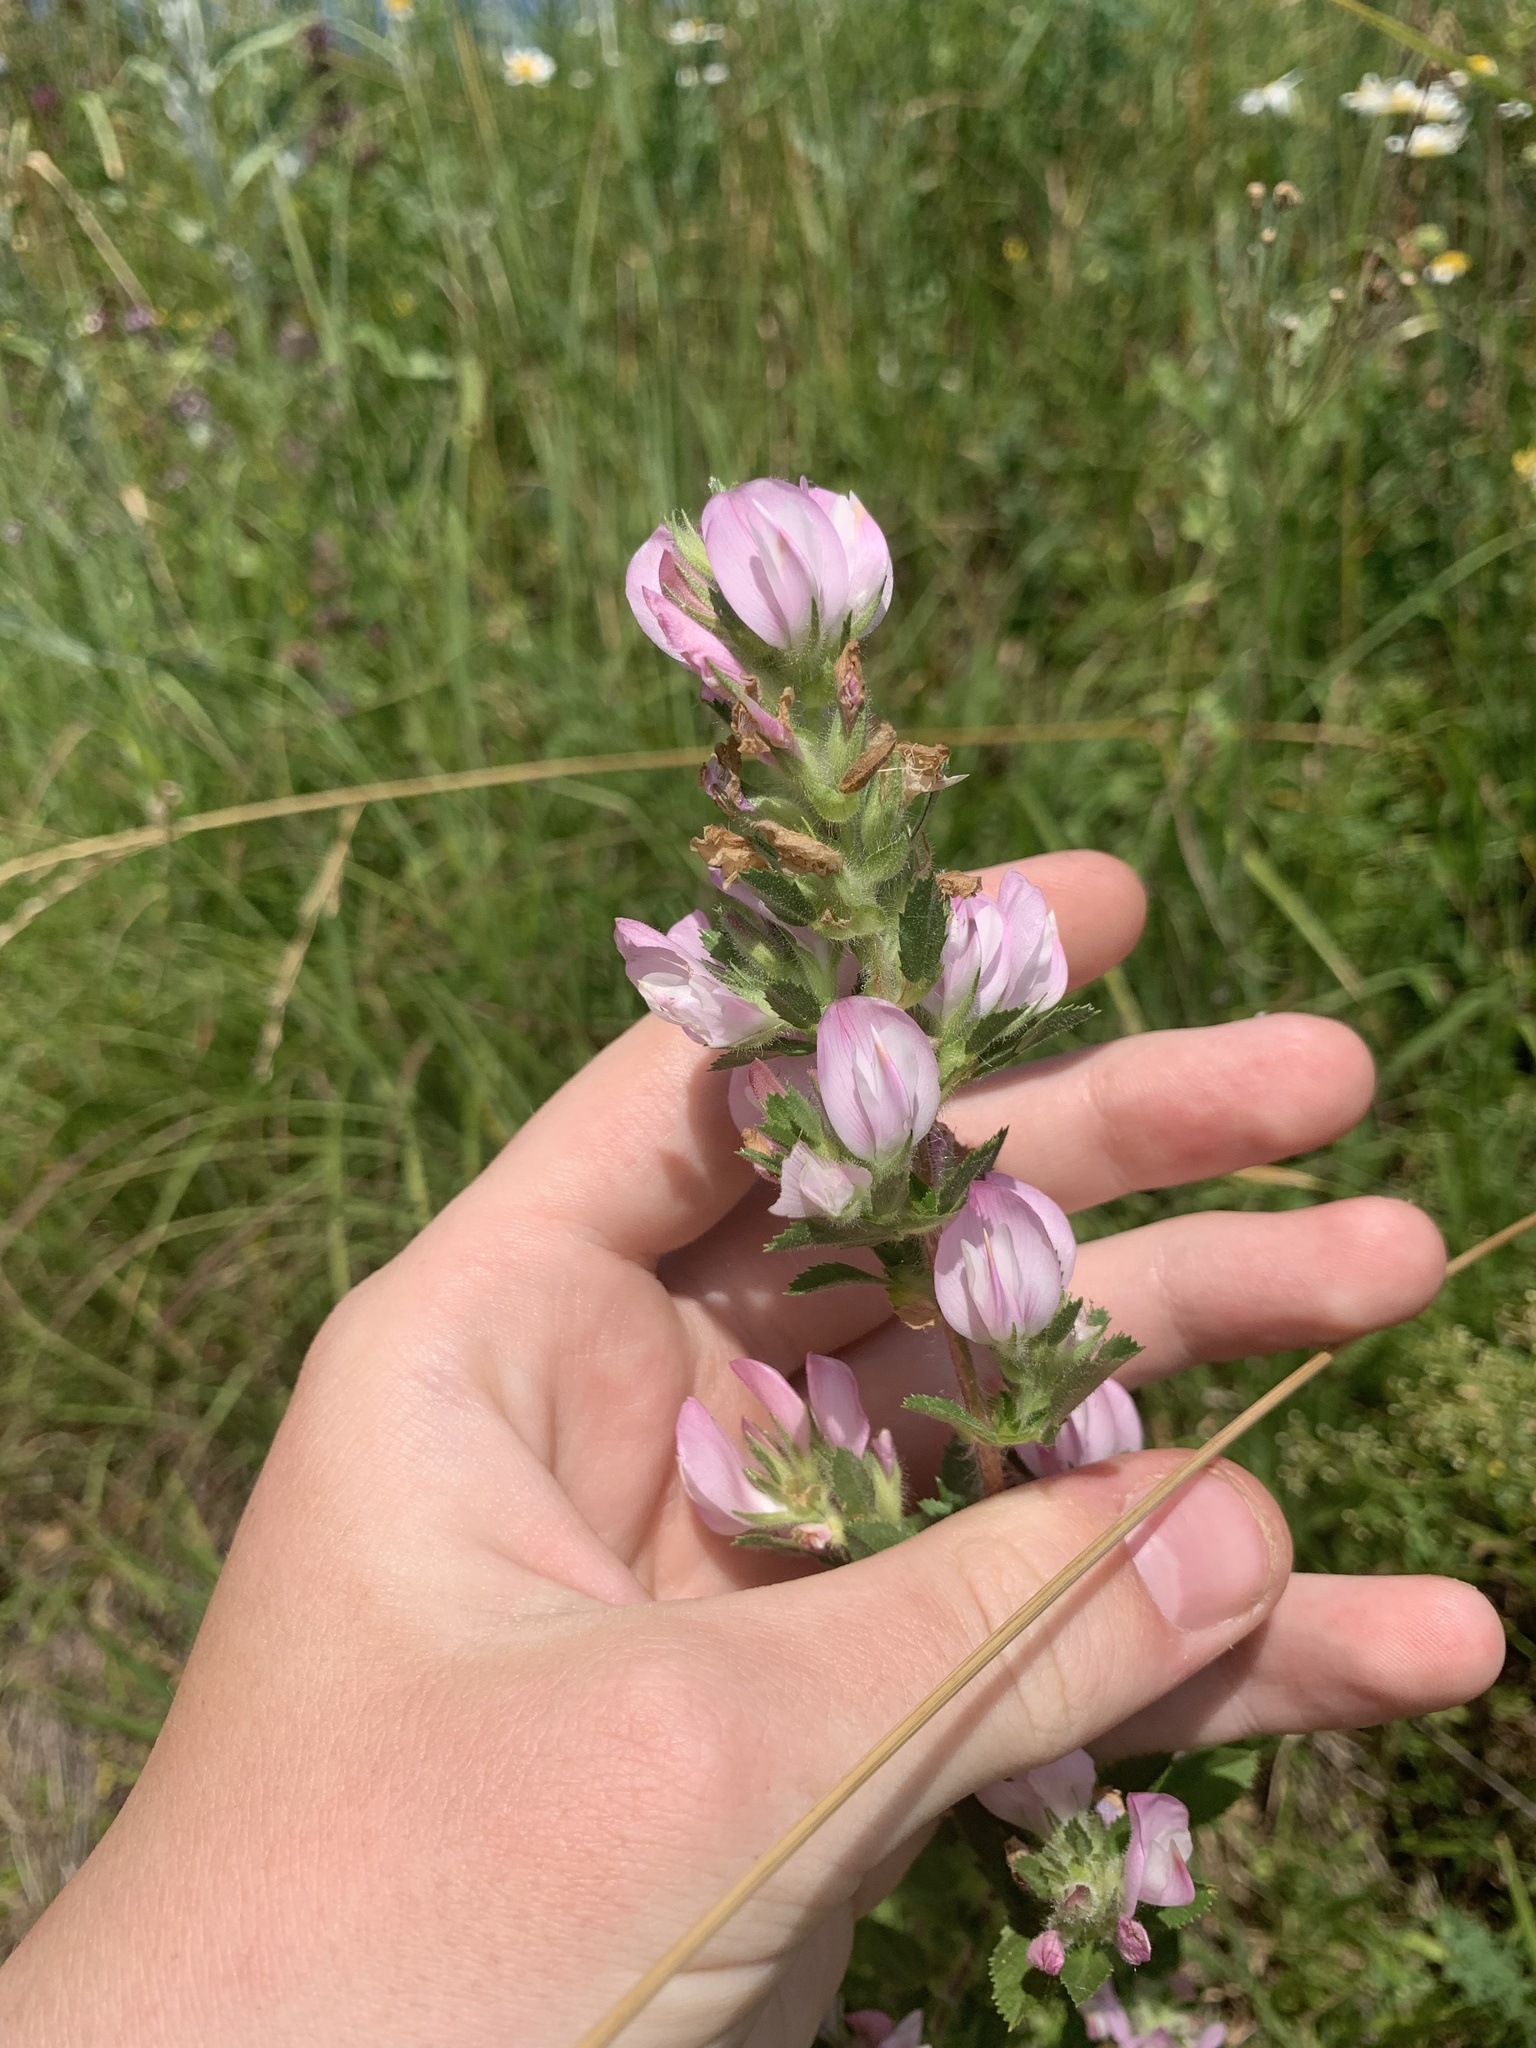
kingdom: Plantae
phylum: Tracheophyta
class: Magnoliopsida
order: Fabales
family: Fabaceae
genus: Ononis
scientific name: Ononis arvensis
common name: Field restharrow
